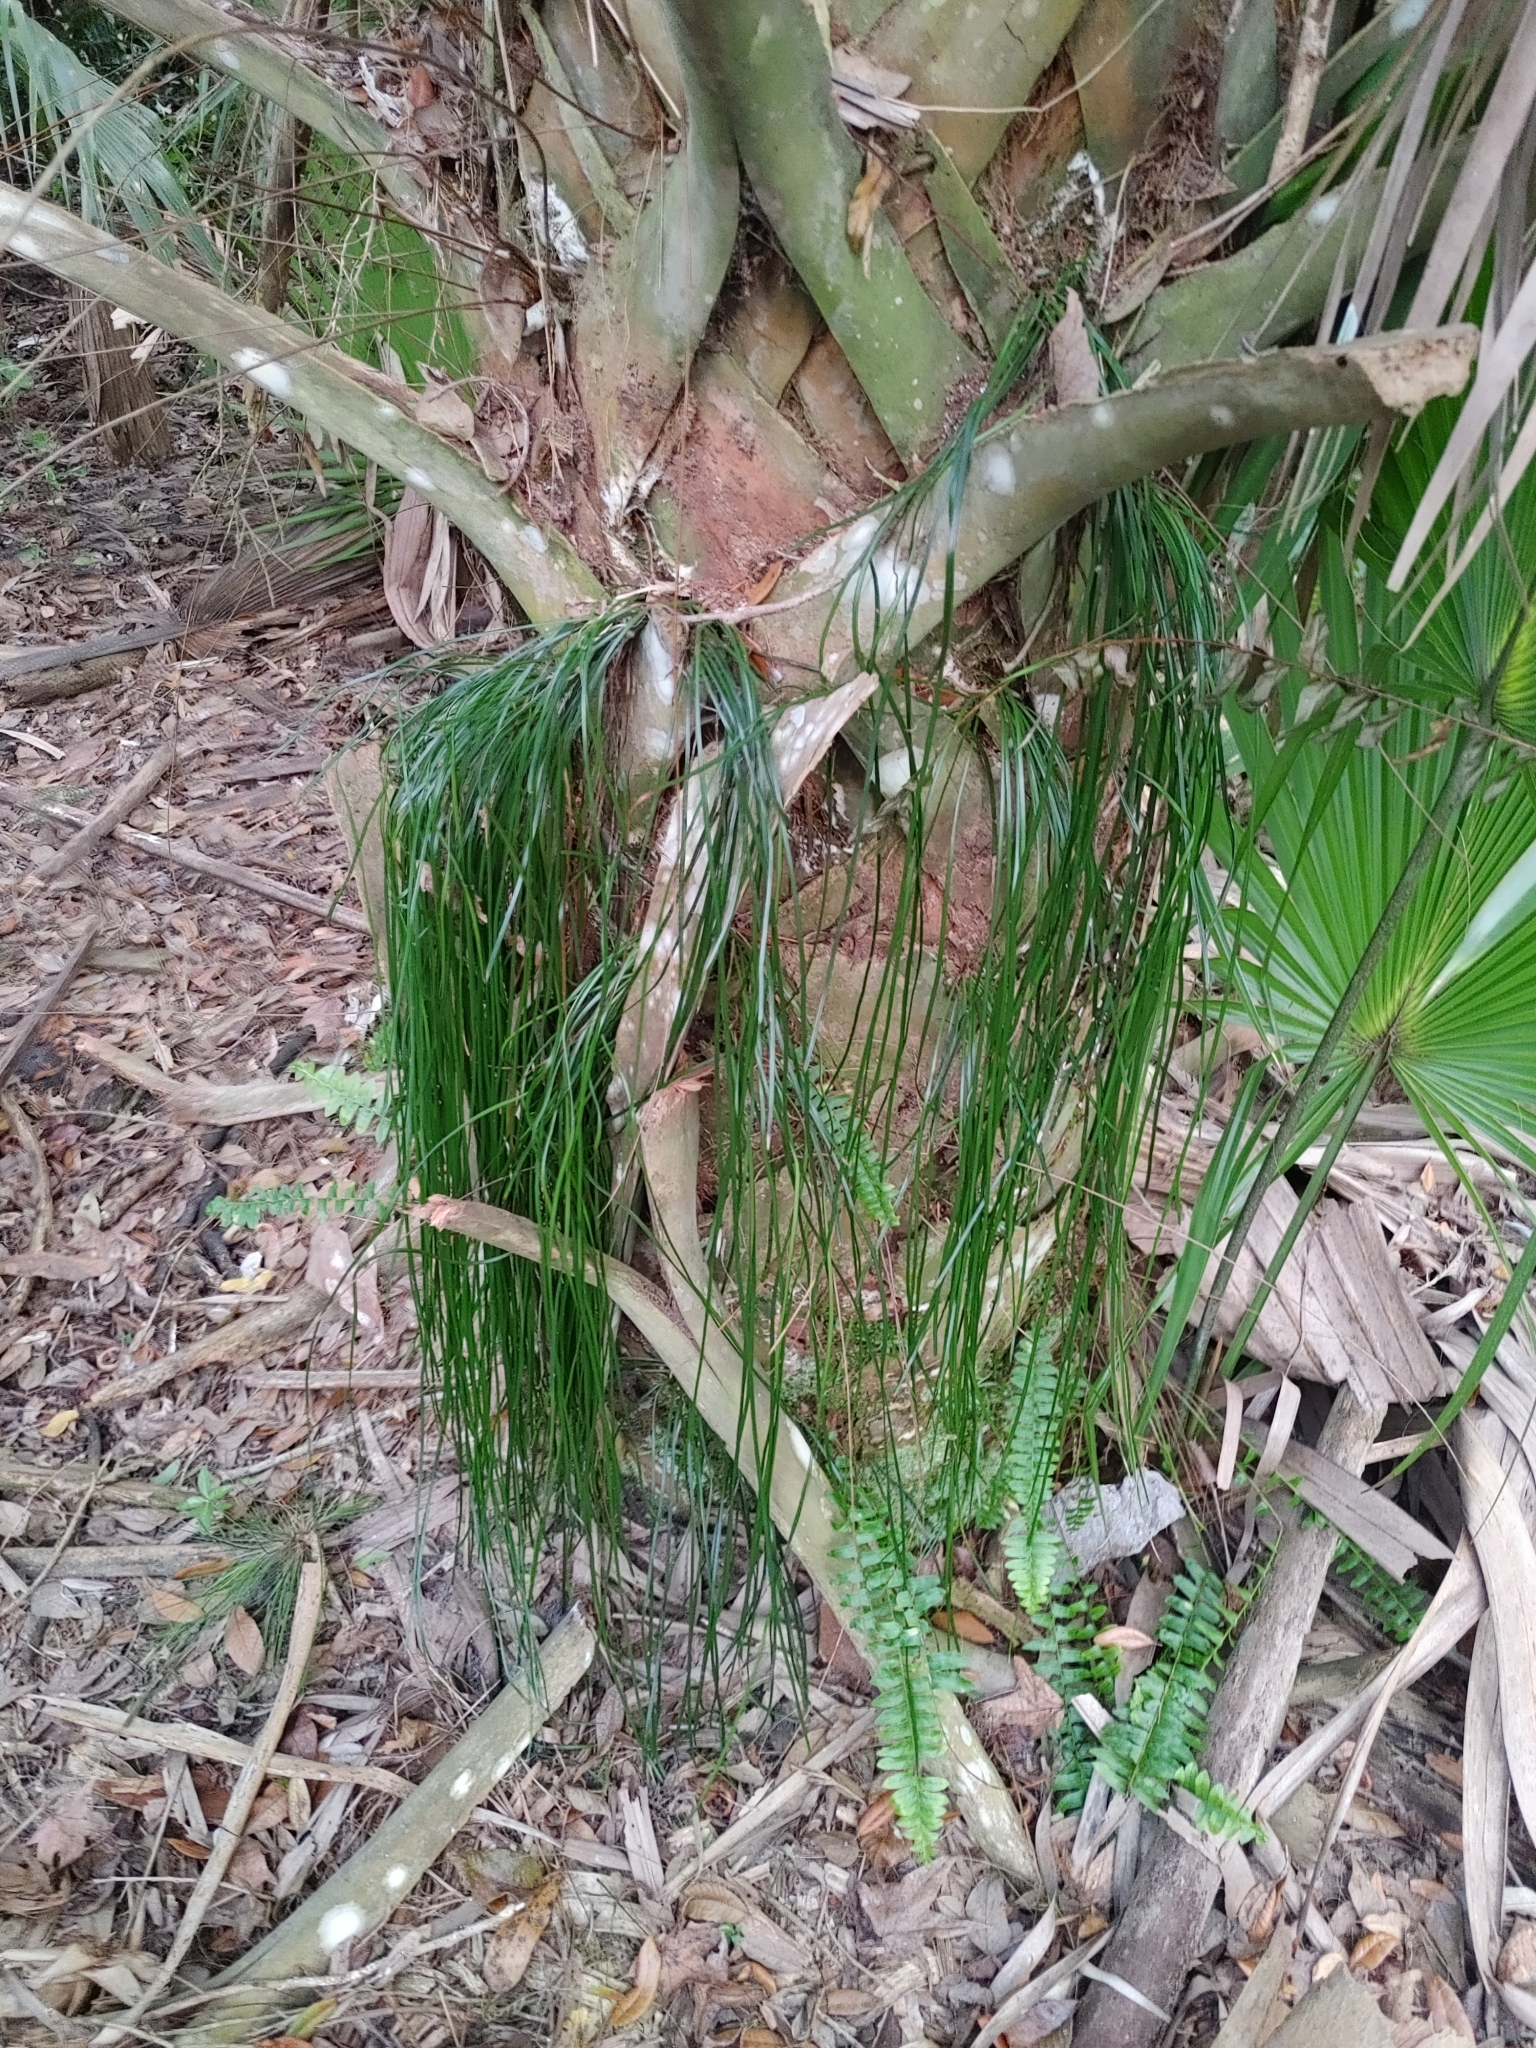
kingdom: Plantae
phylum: Tracheophyta
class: Polypodiopsida
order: Polypodiales
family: Pteridaceae
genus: Vittaria
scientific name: Vittaria lineata
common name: Shoestring fern
